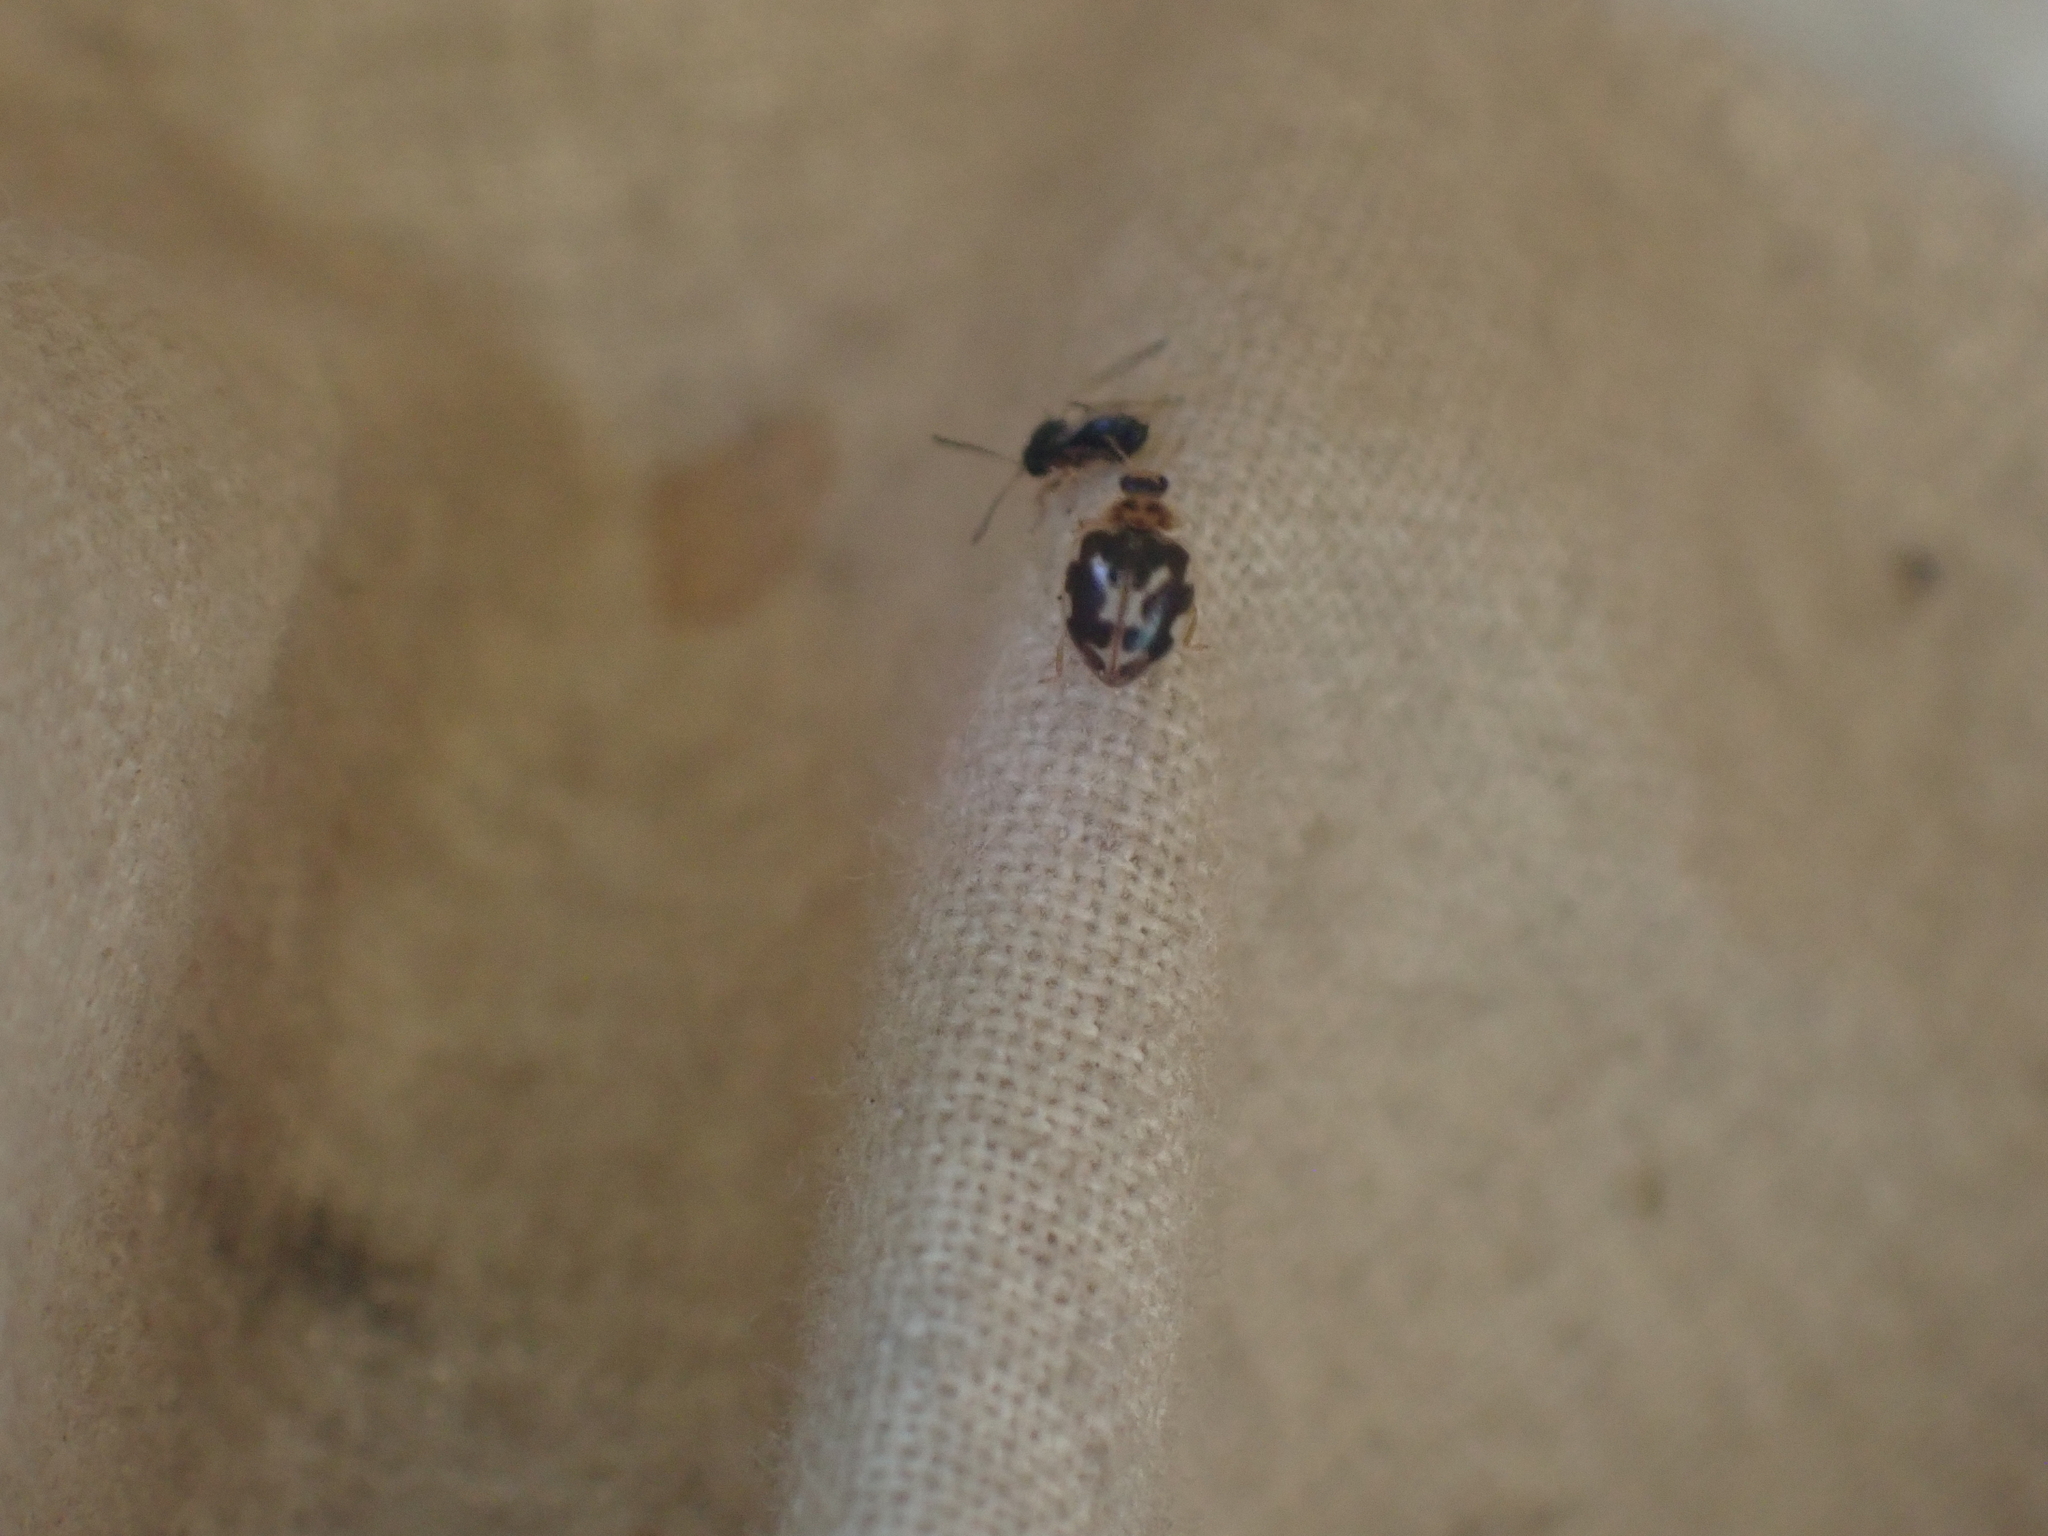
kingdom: Animalia
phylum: Arthropoda
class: Insecta
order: Coleoptera
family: Coccinellidae
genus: Psyllobora
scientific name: Psyllobora vigintimaculata
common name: Ladybird beetle
